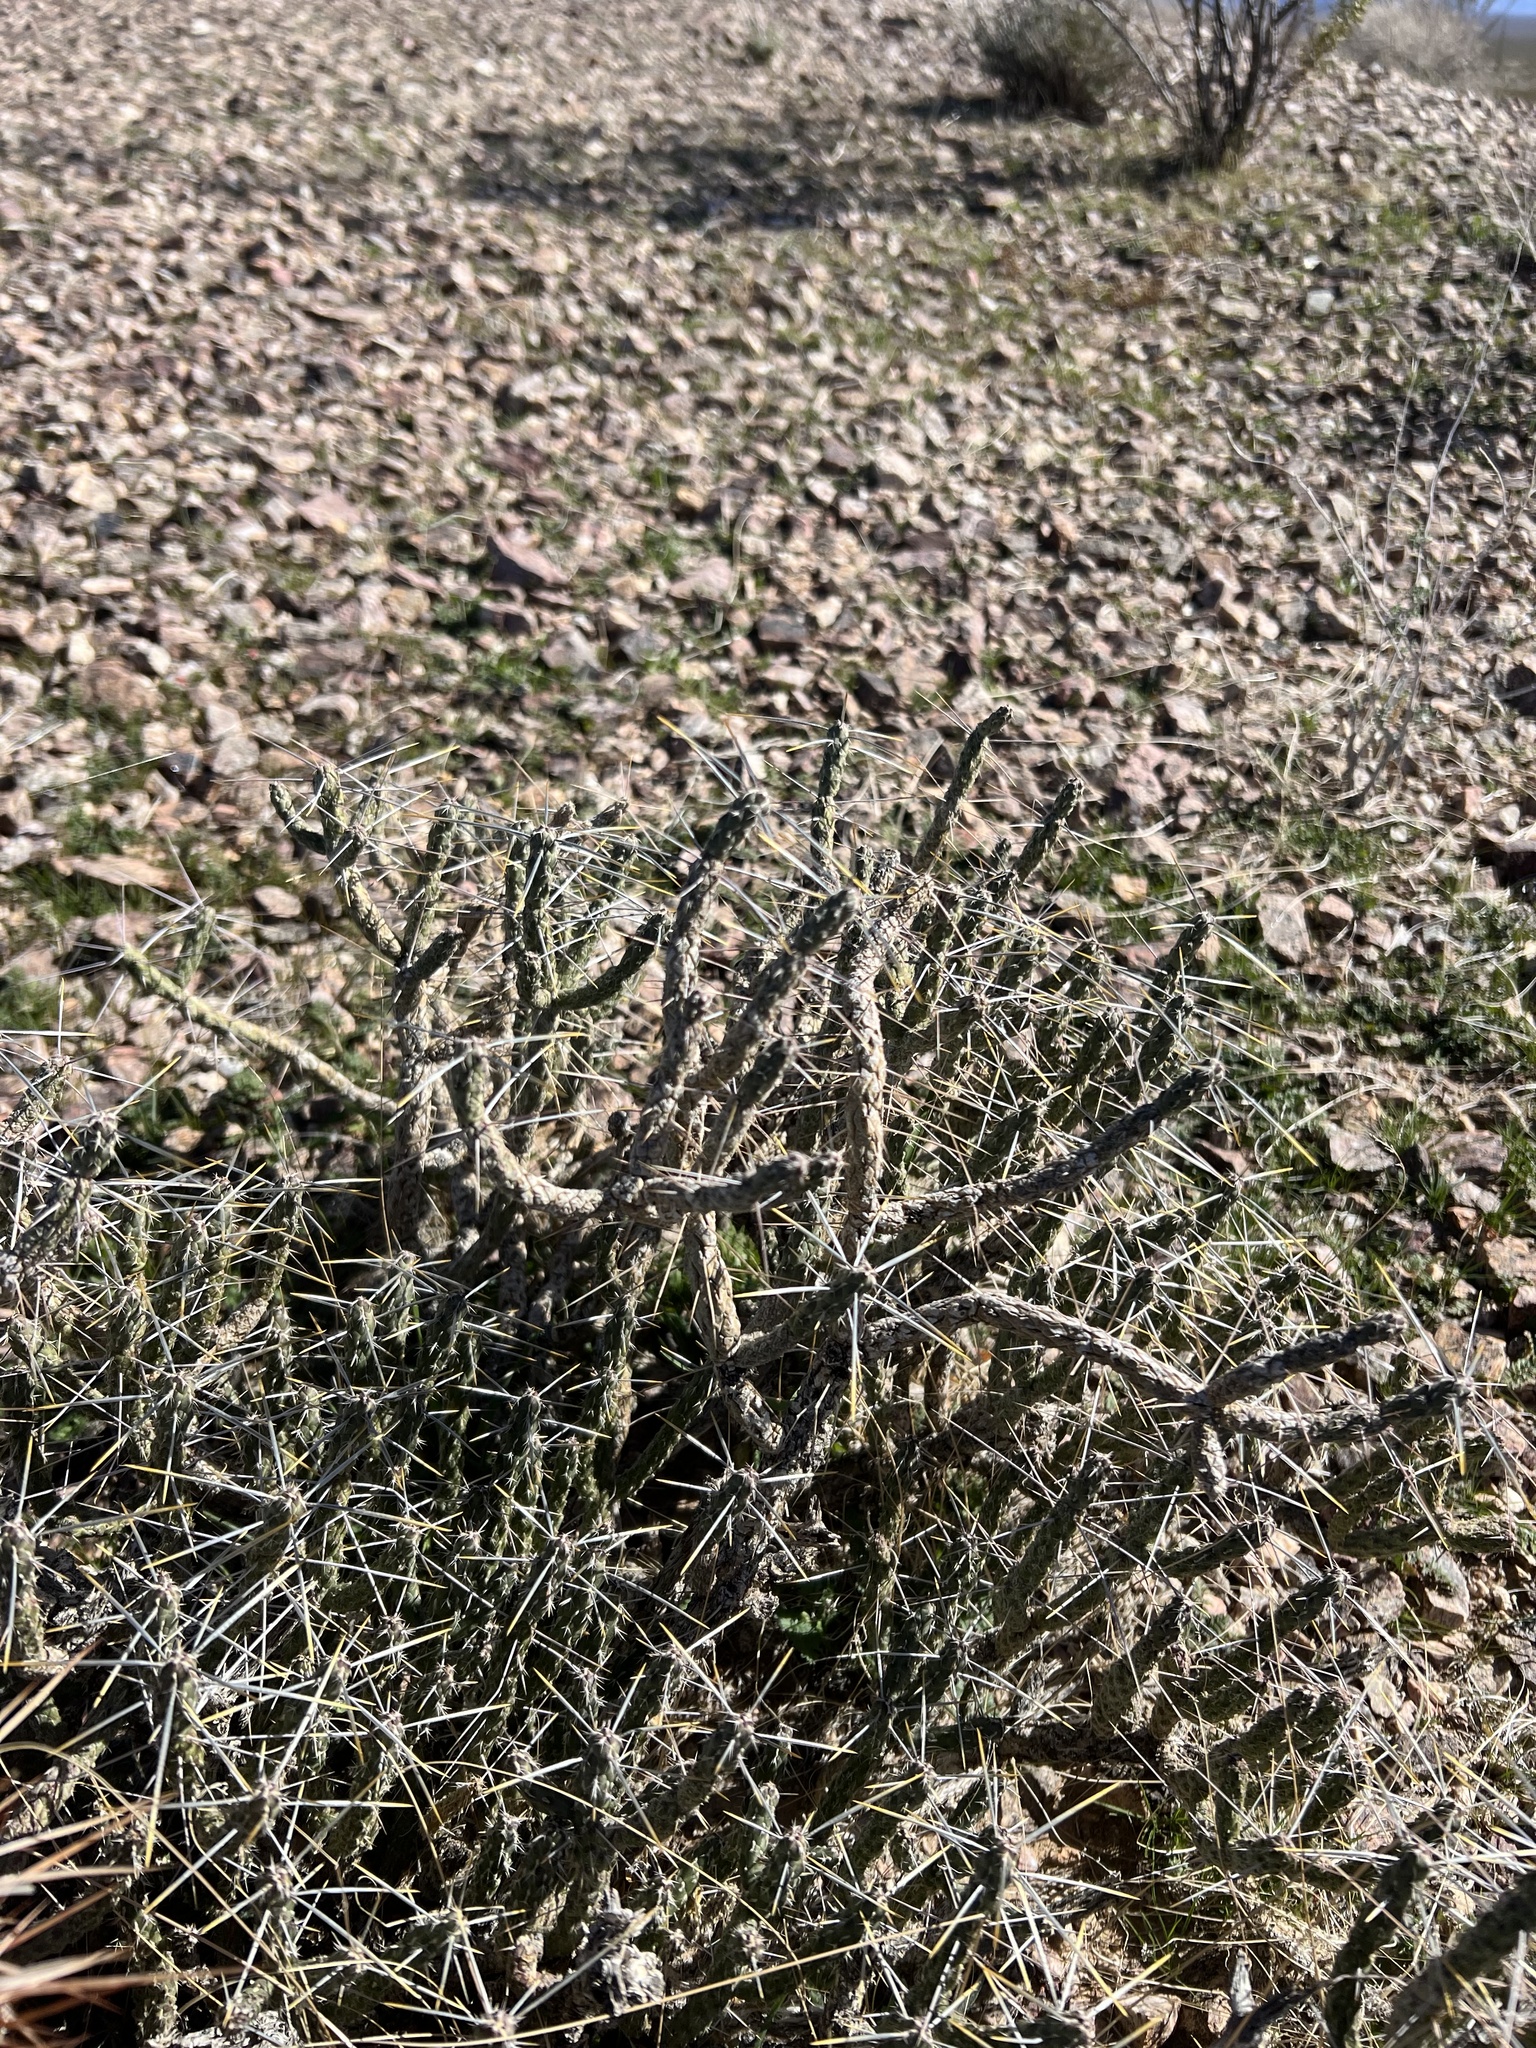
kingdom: Plantae
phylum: Tracheophyta
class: Magnoliopsida
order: Caryophyllales
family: Cactaceae
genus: Cylindropuntia
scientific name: Cylindropuntia ramosissima
